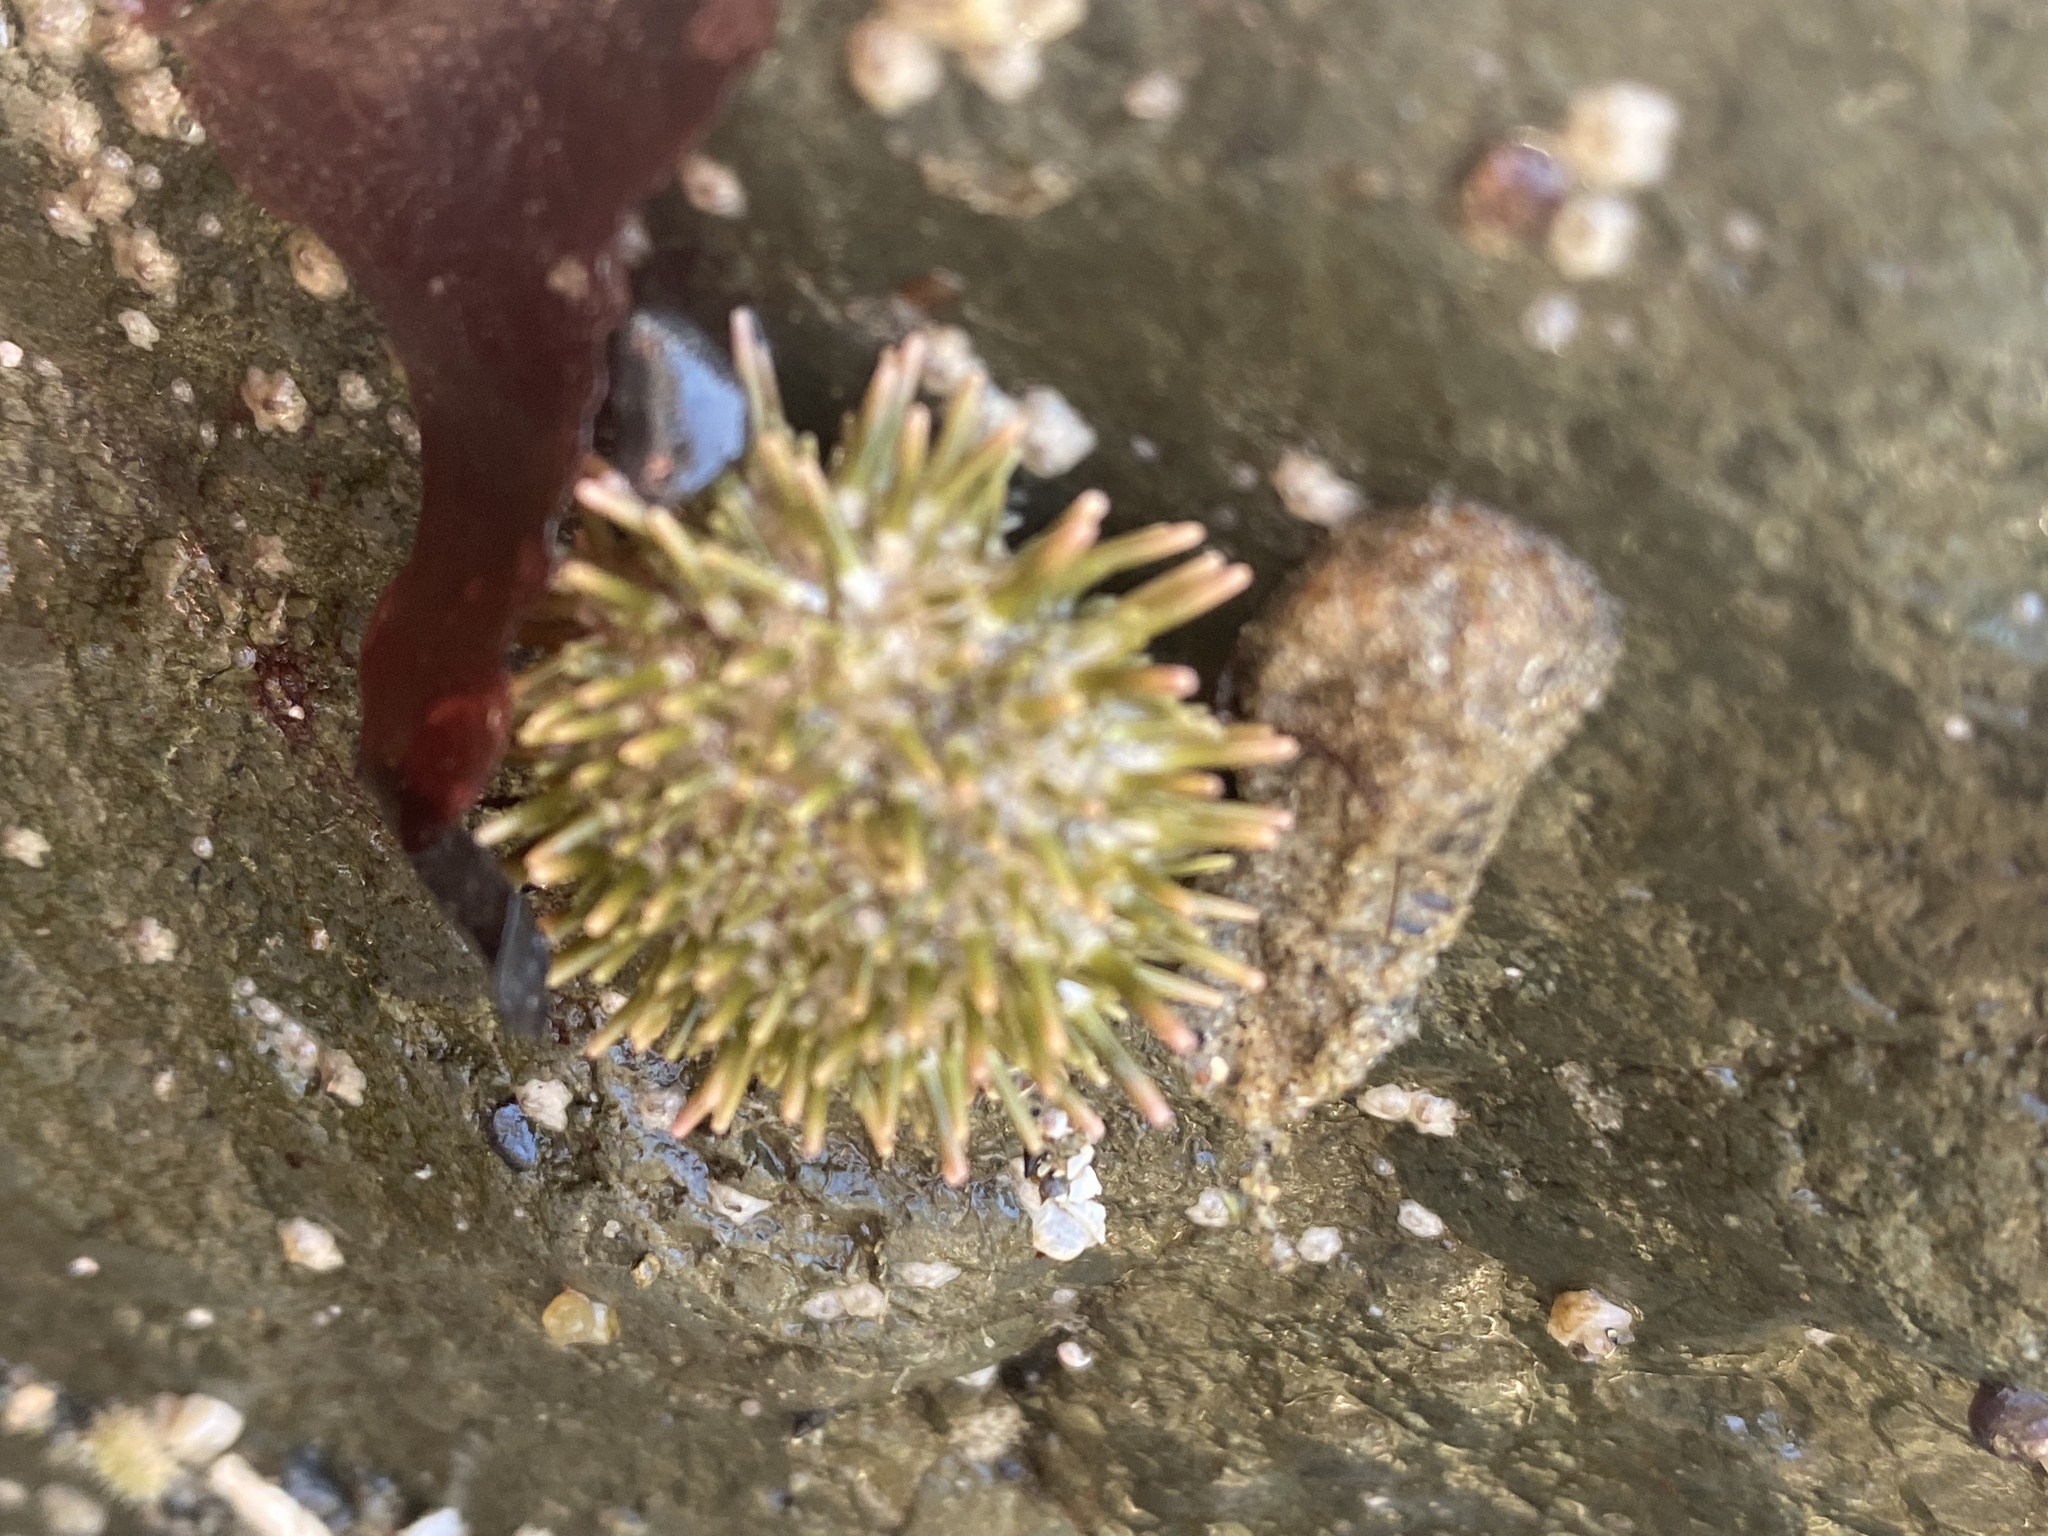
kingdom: Animalia
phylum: Echinodermata
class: Echinoidea
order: Camarodonta
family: Strongylocentrotidae
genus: Strongylocentrotus
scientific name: Strongylocentrotus purpuratus
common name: Purple sea urchin
